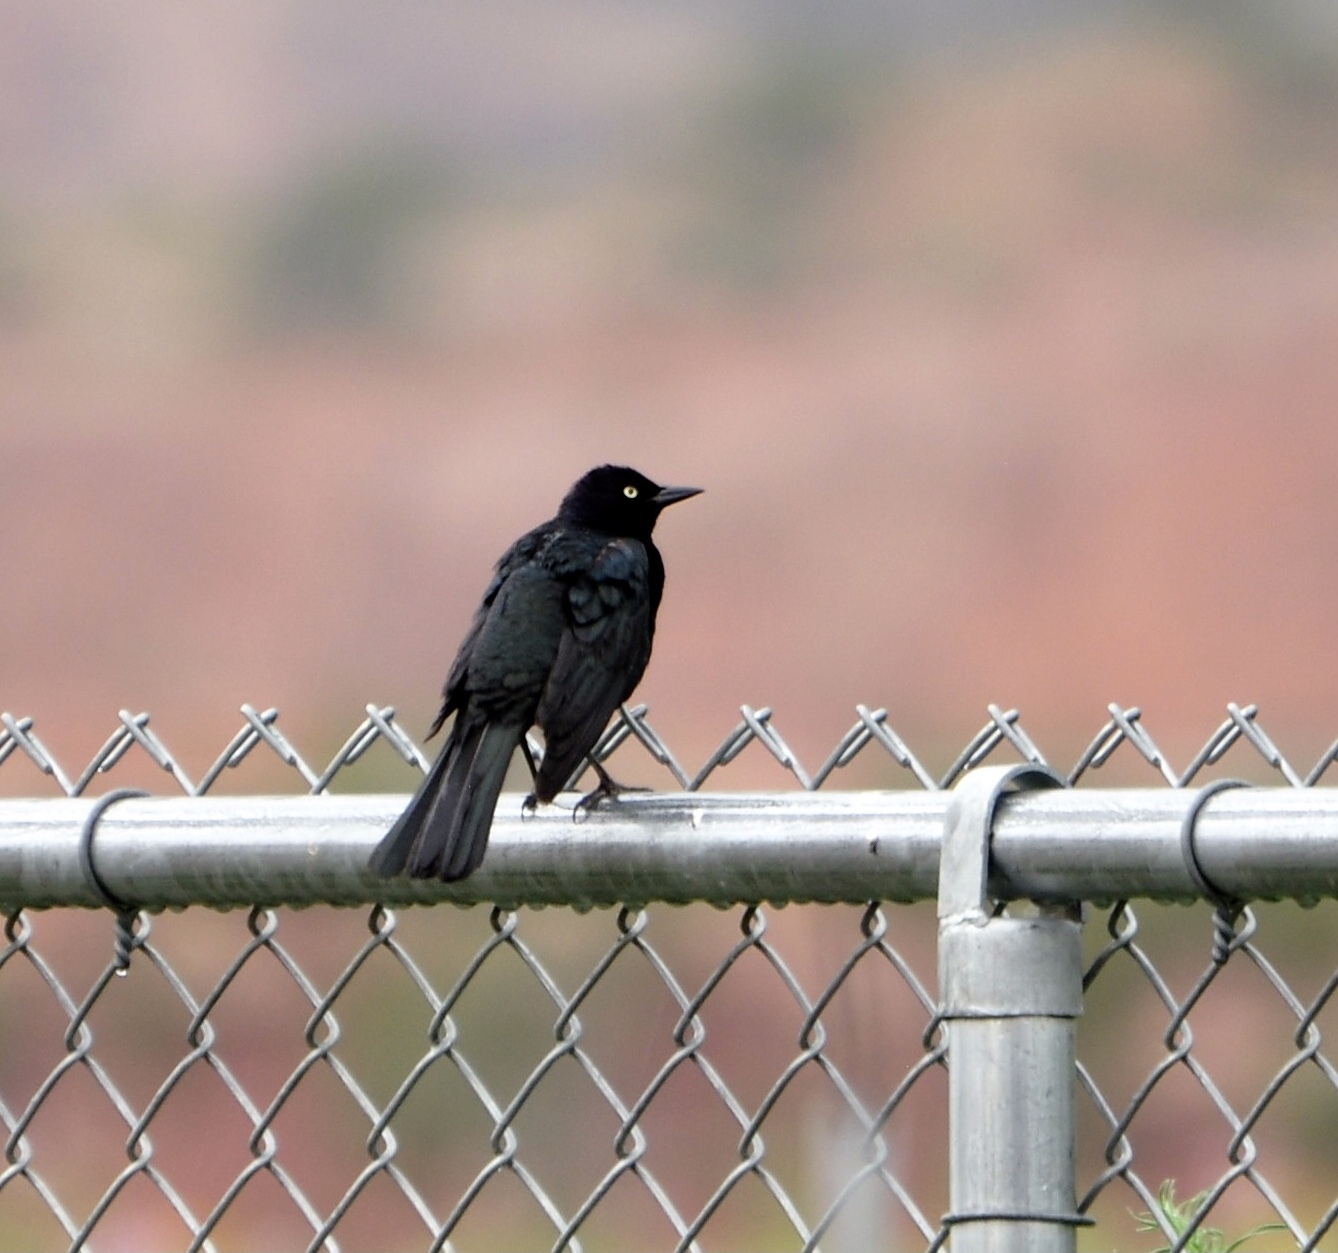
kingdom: Animalia
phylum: Chordata
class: Aves
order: Passeriformes
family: Icteridae
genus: Euphagus
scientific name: Euphagus cyanocephalus
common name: Brewer's blackbird
